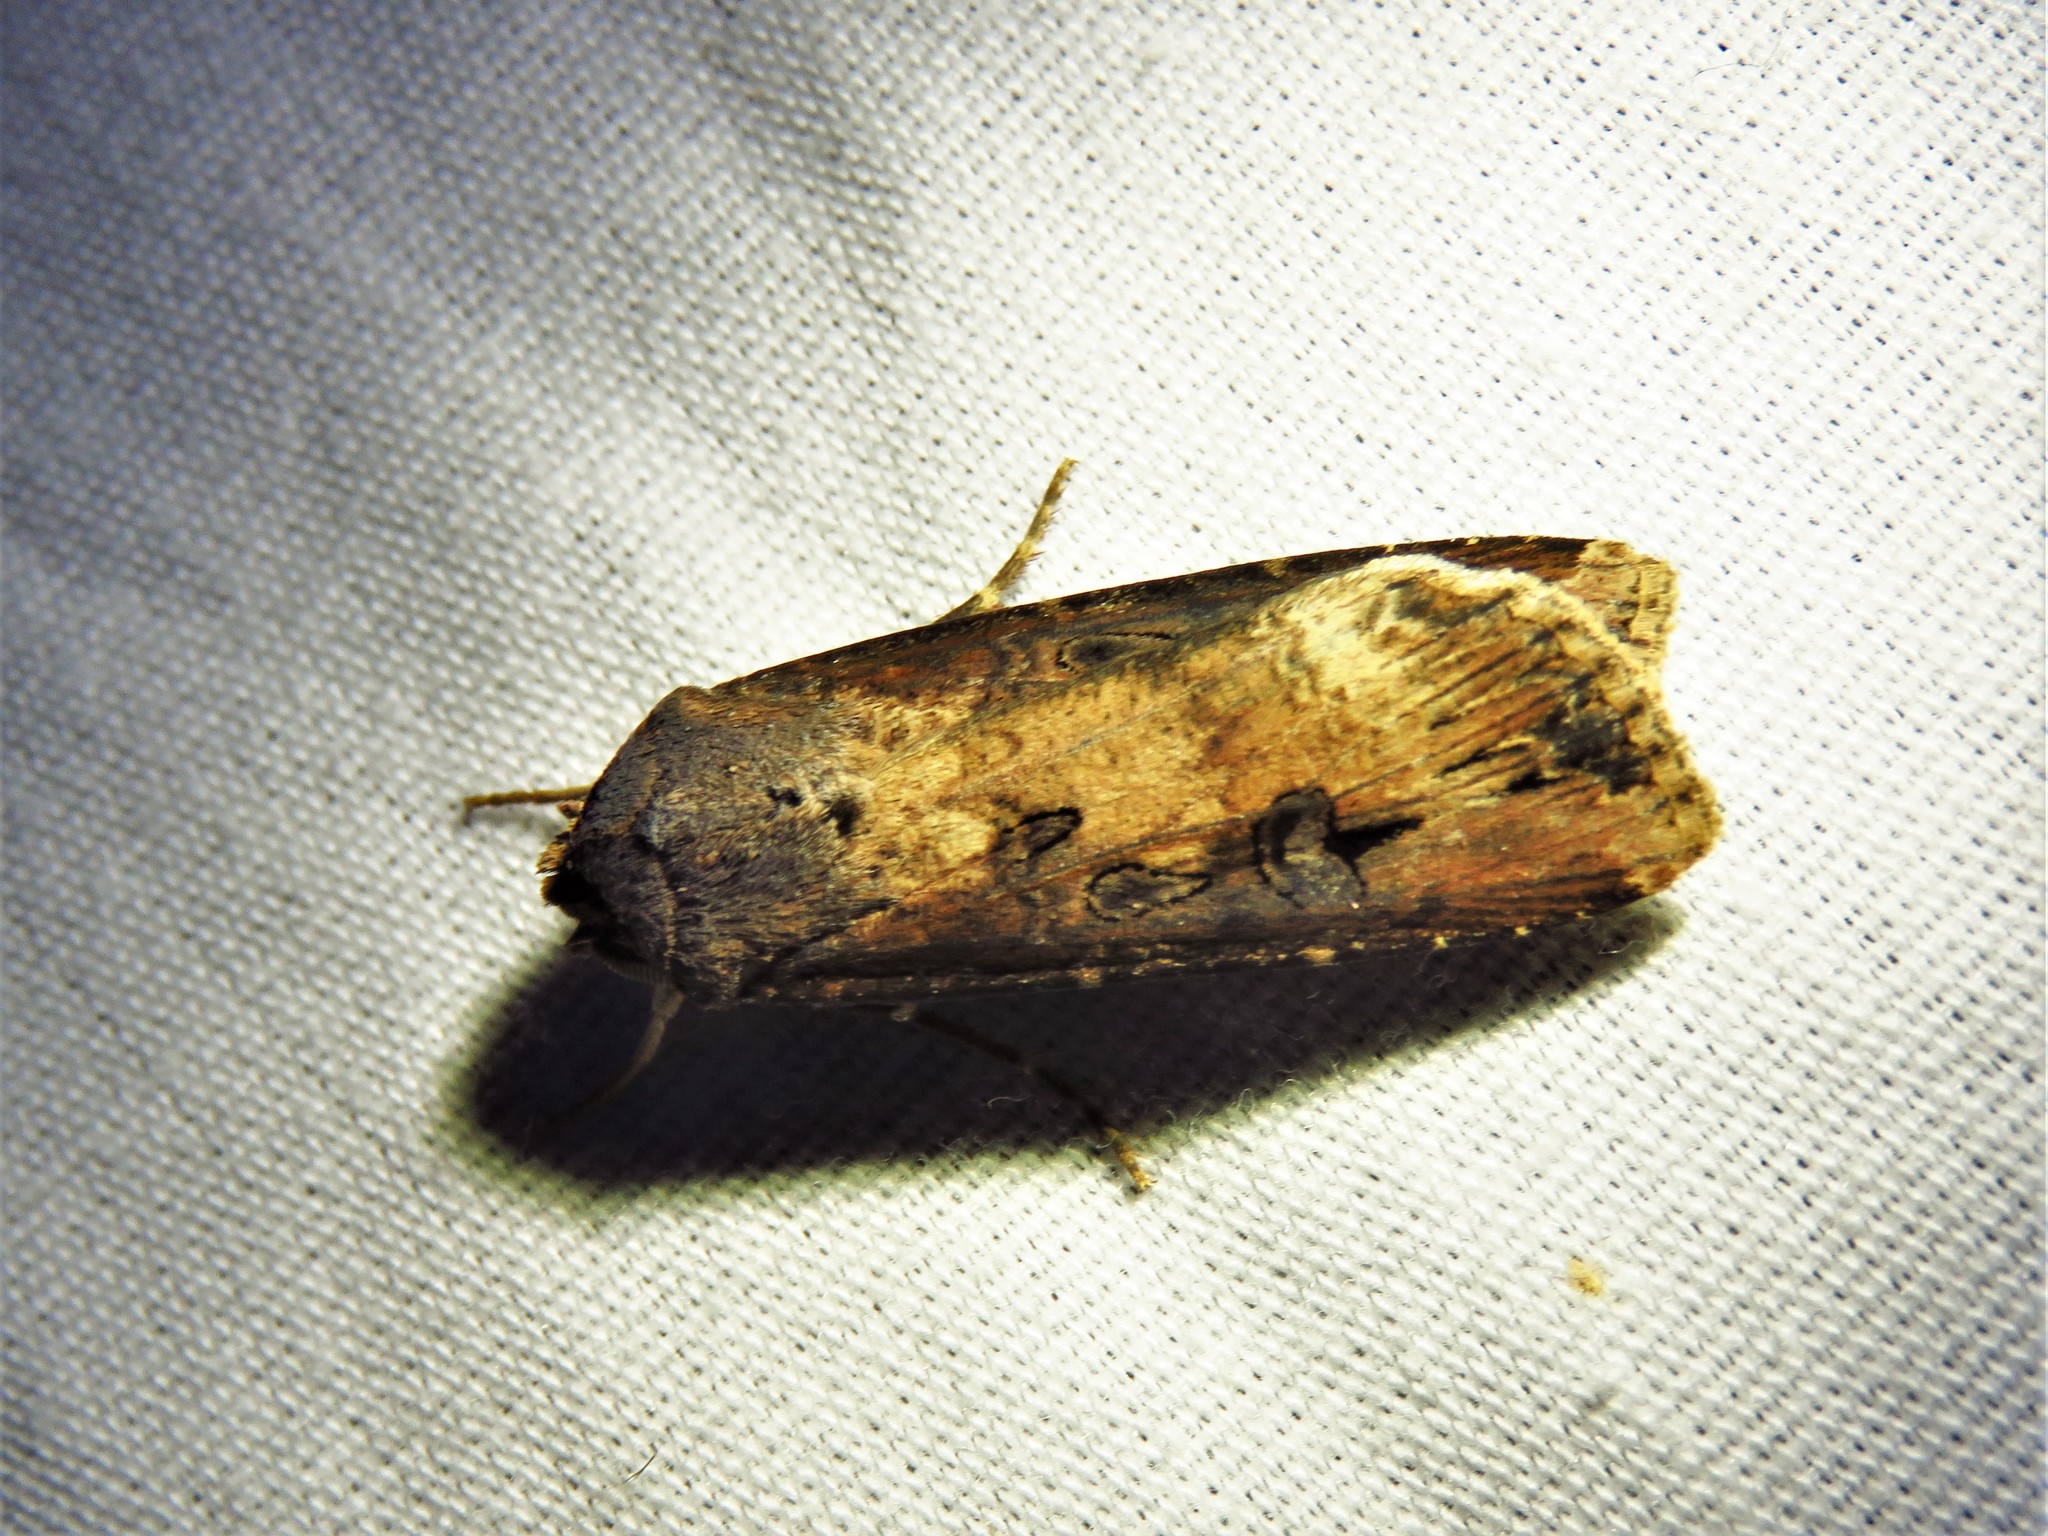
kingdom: Animalia
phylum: Arthropoda
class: Insecta
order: Lepidoptera
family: Noctuidae
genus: Agrotis
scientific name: Agrotis ipsilon
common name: Dark sword-grass
